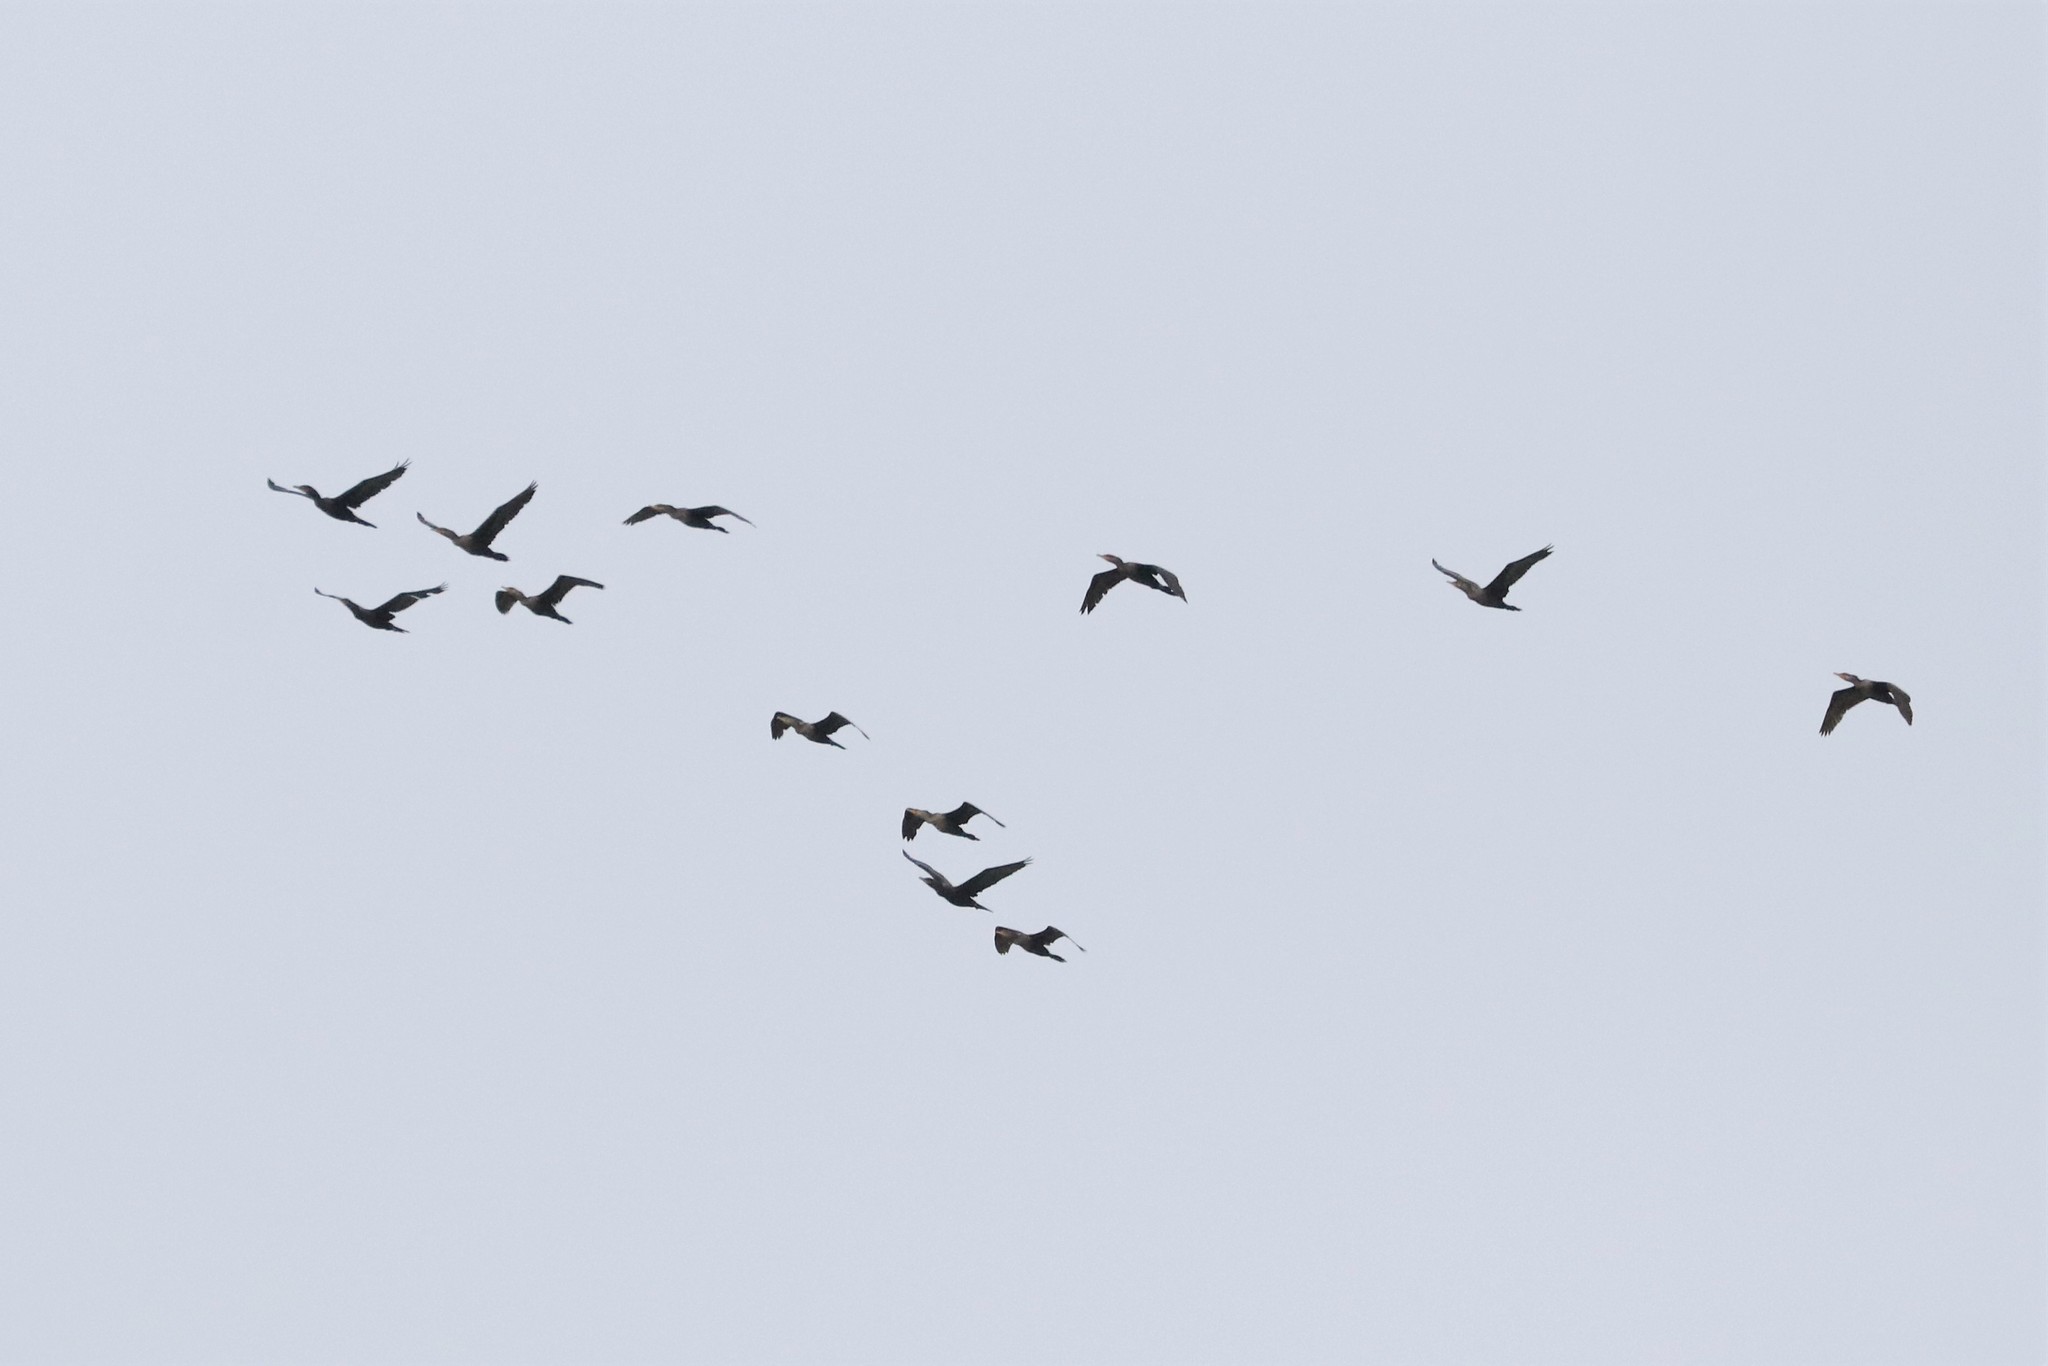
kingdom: Animalia
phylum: Chordata
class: Aves
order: Suliformes
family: Phalacrocoracidae
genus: Phalacrocorax
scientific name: Phalacrocorax brasilianus
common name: Neotropic cormorant
